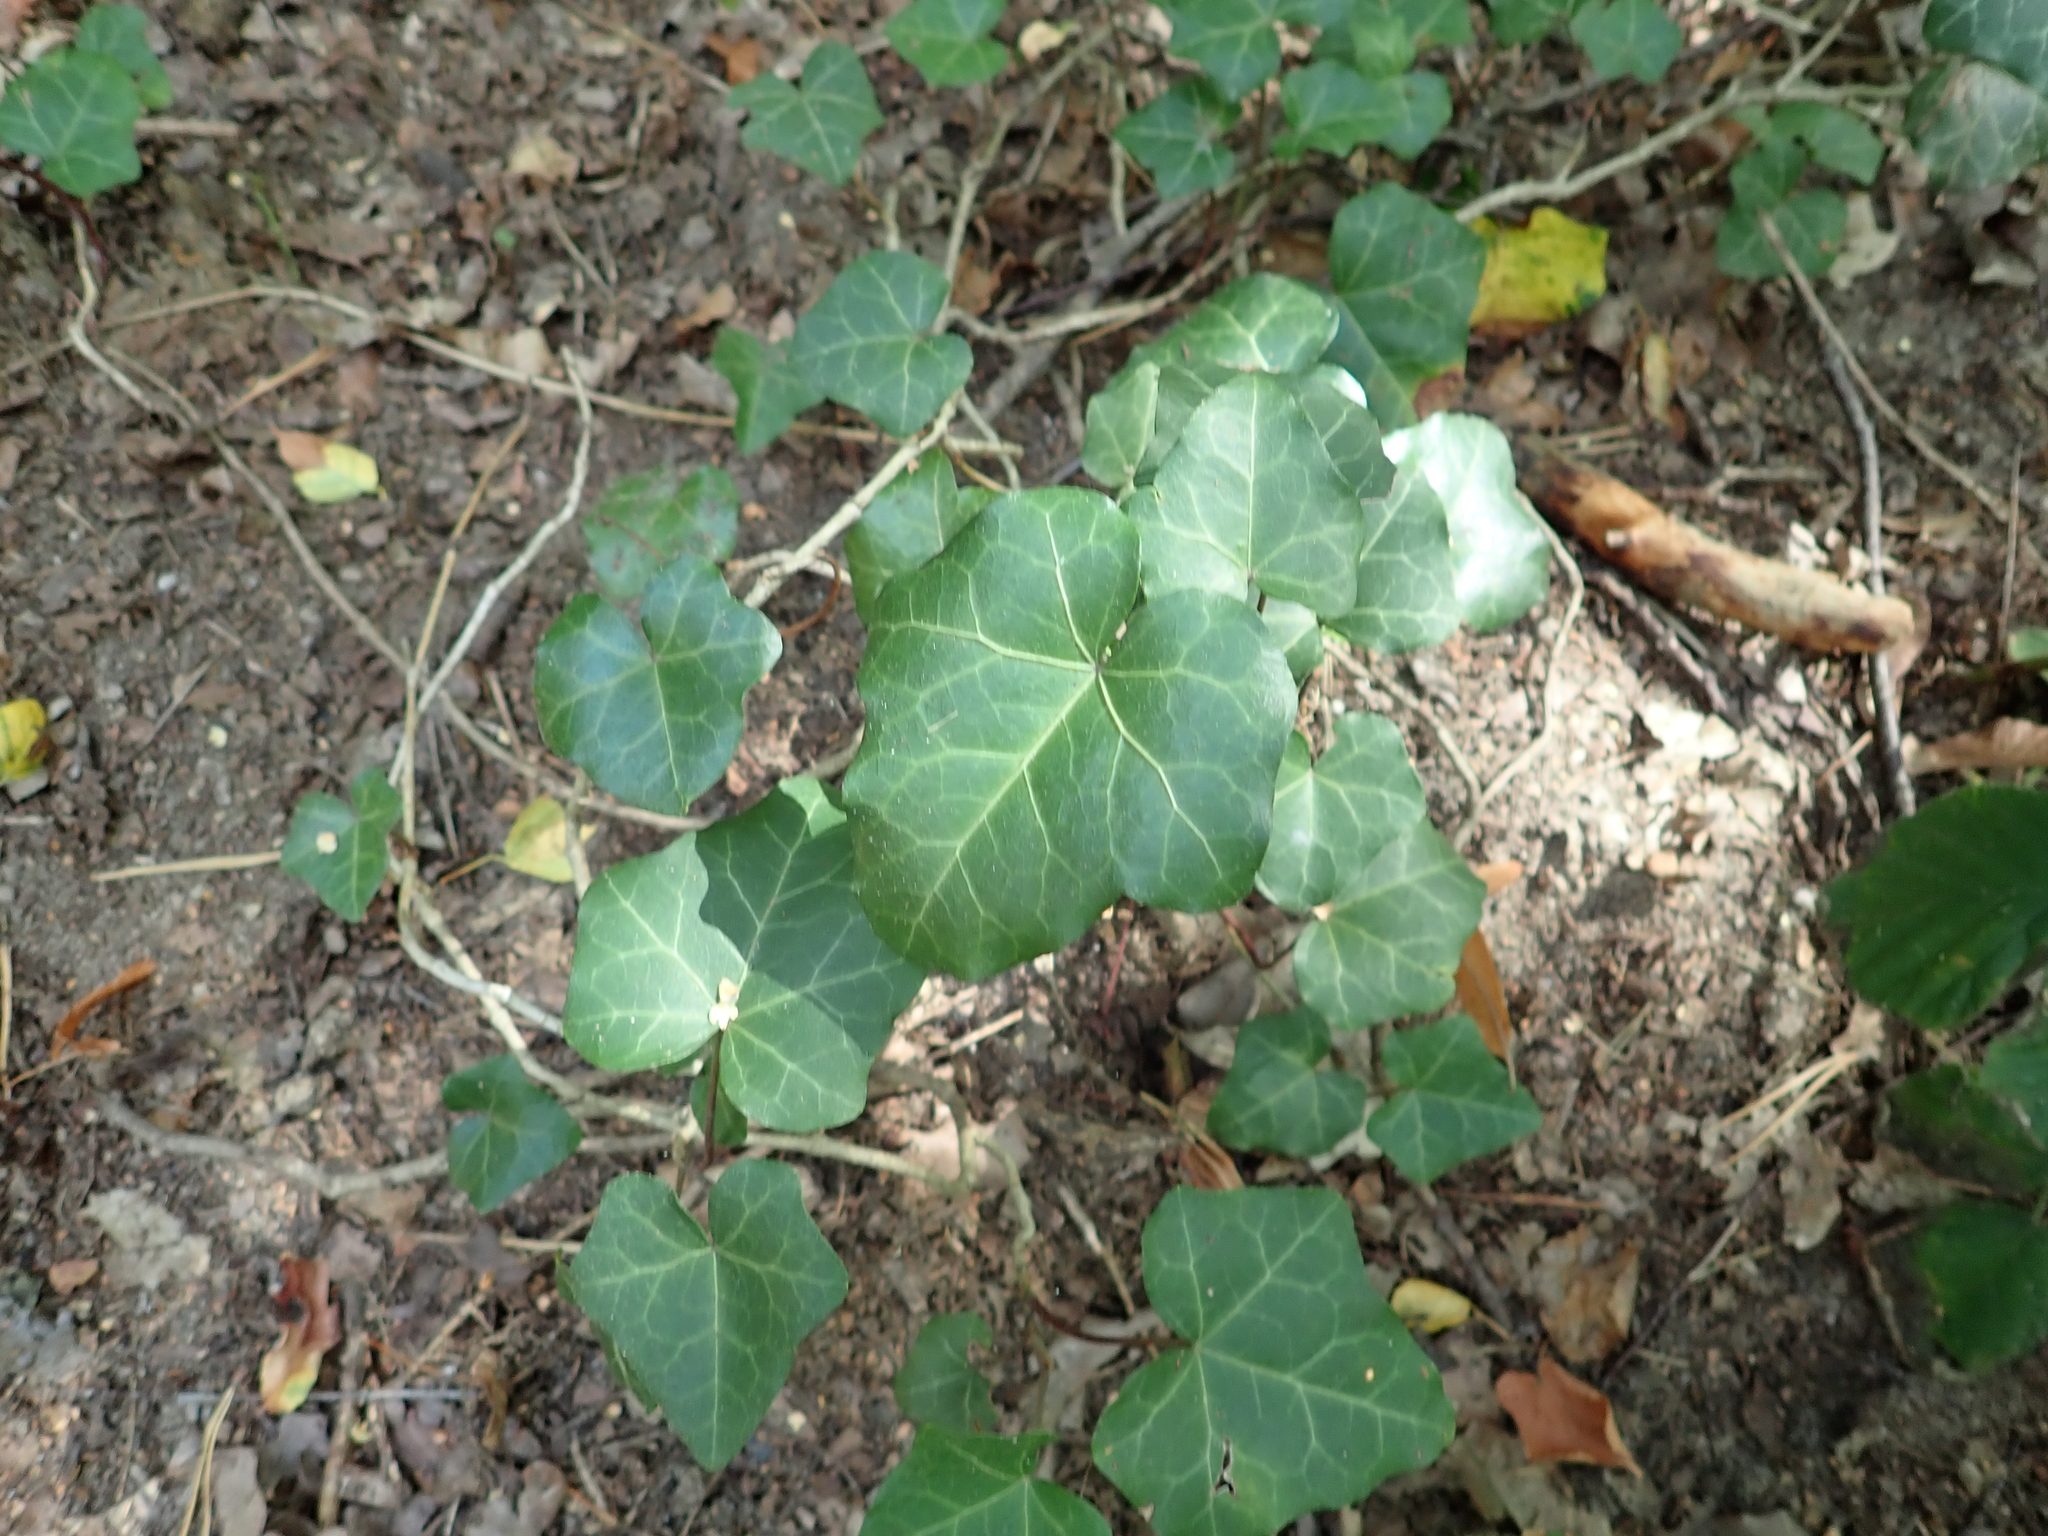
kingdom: Plantae
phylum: Tracheophyta
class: Magnoliopsida
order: Apiales
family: Araliaceae
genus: Hedera
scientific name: Hedera helix
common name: Ivy
